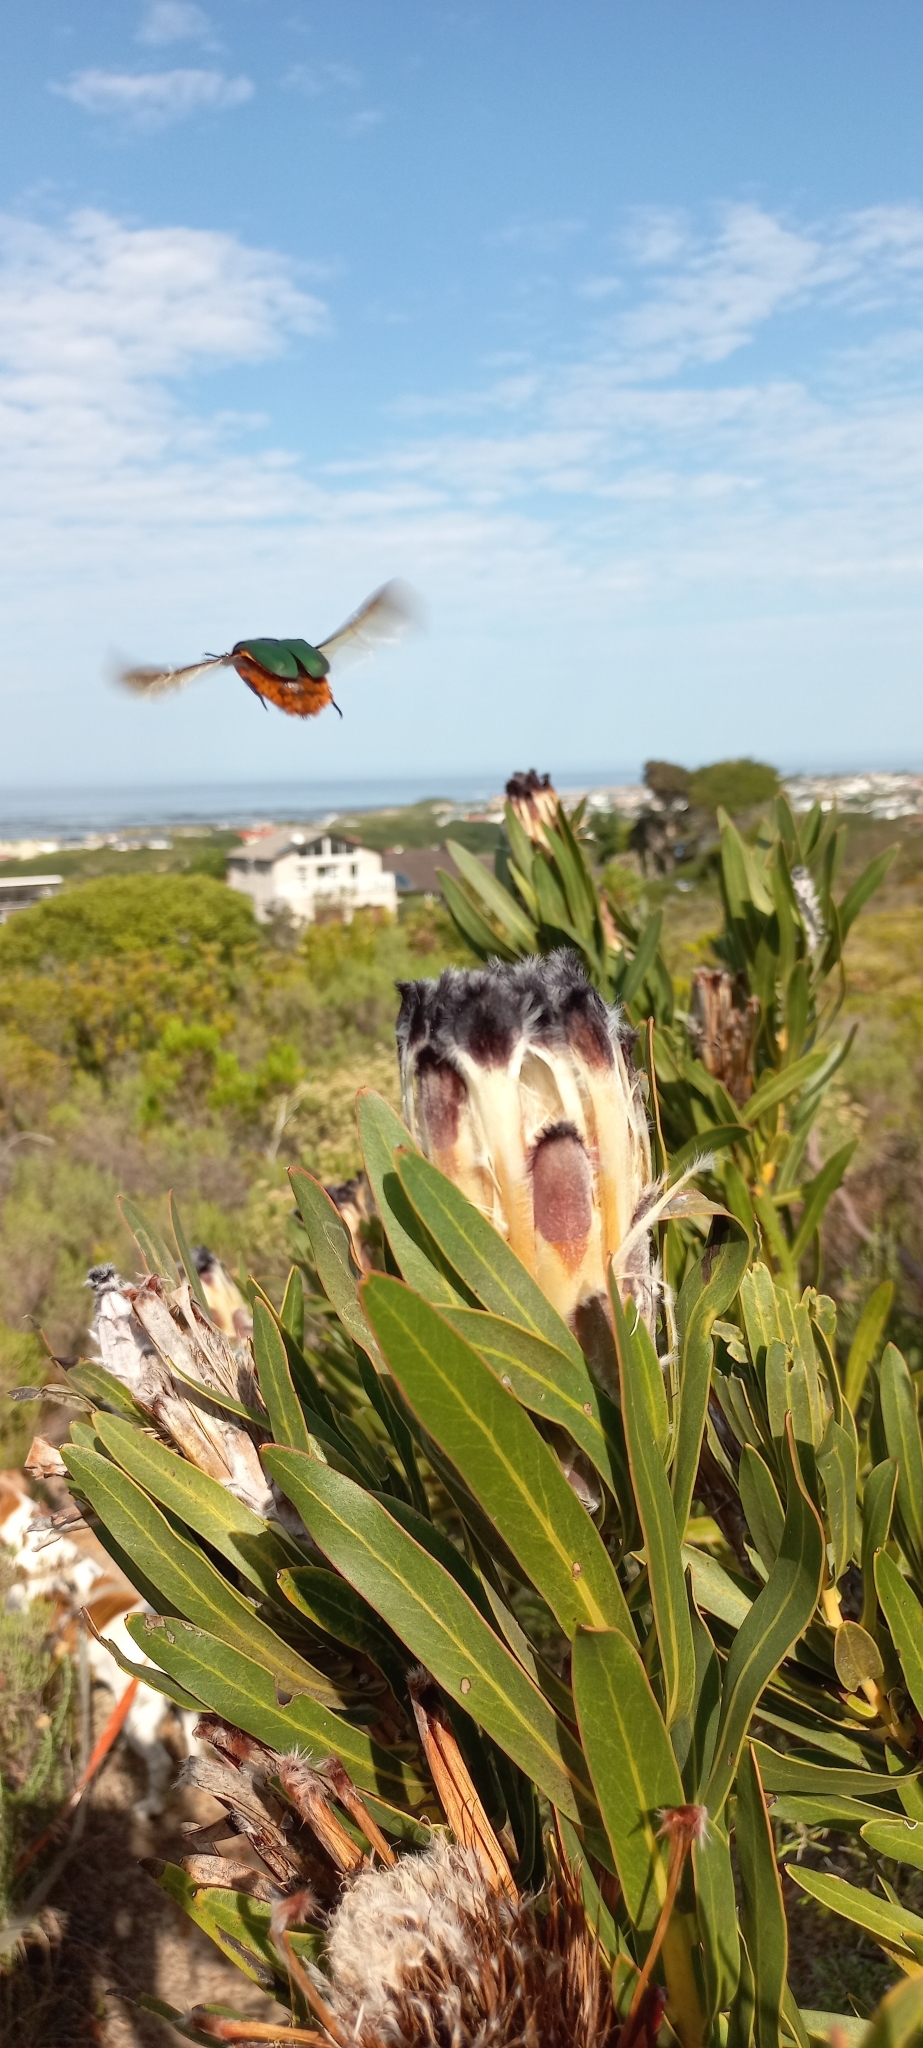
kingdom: Plantae
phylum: Tracheophyta
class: Magnoliopsida
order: Proteales
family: Proteaceae
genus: Protea
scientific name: Protea lepidocarpodendron
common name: Black-bearded protea
